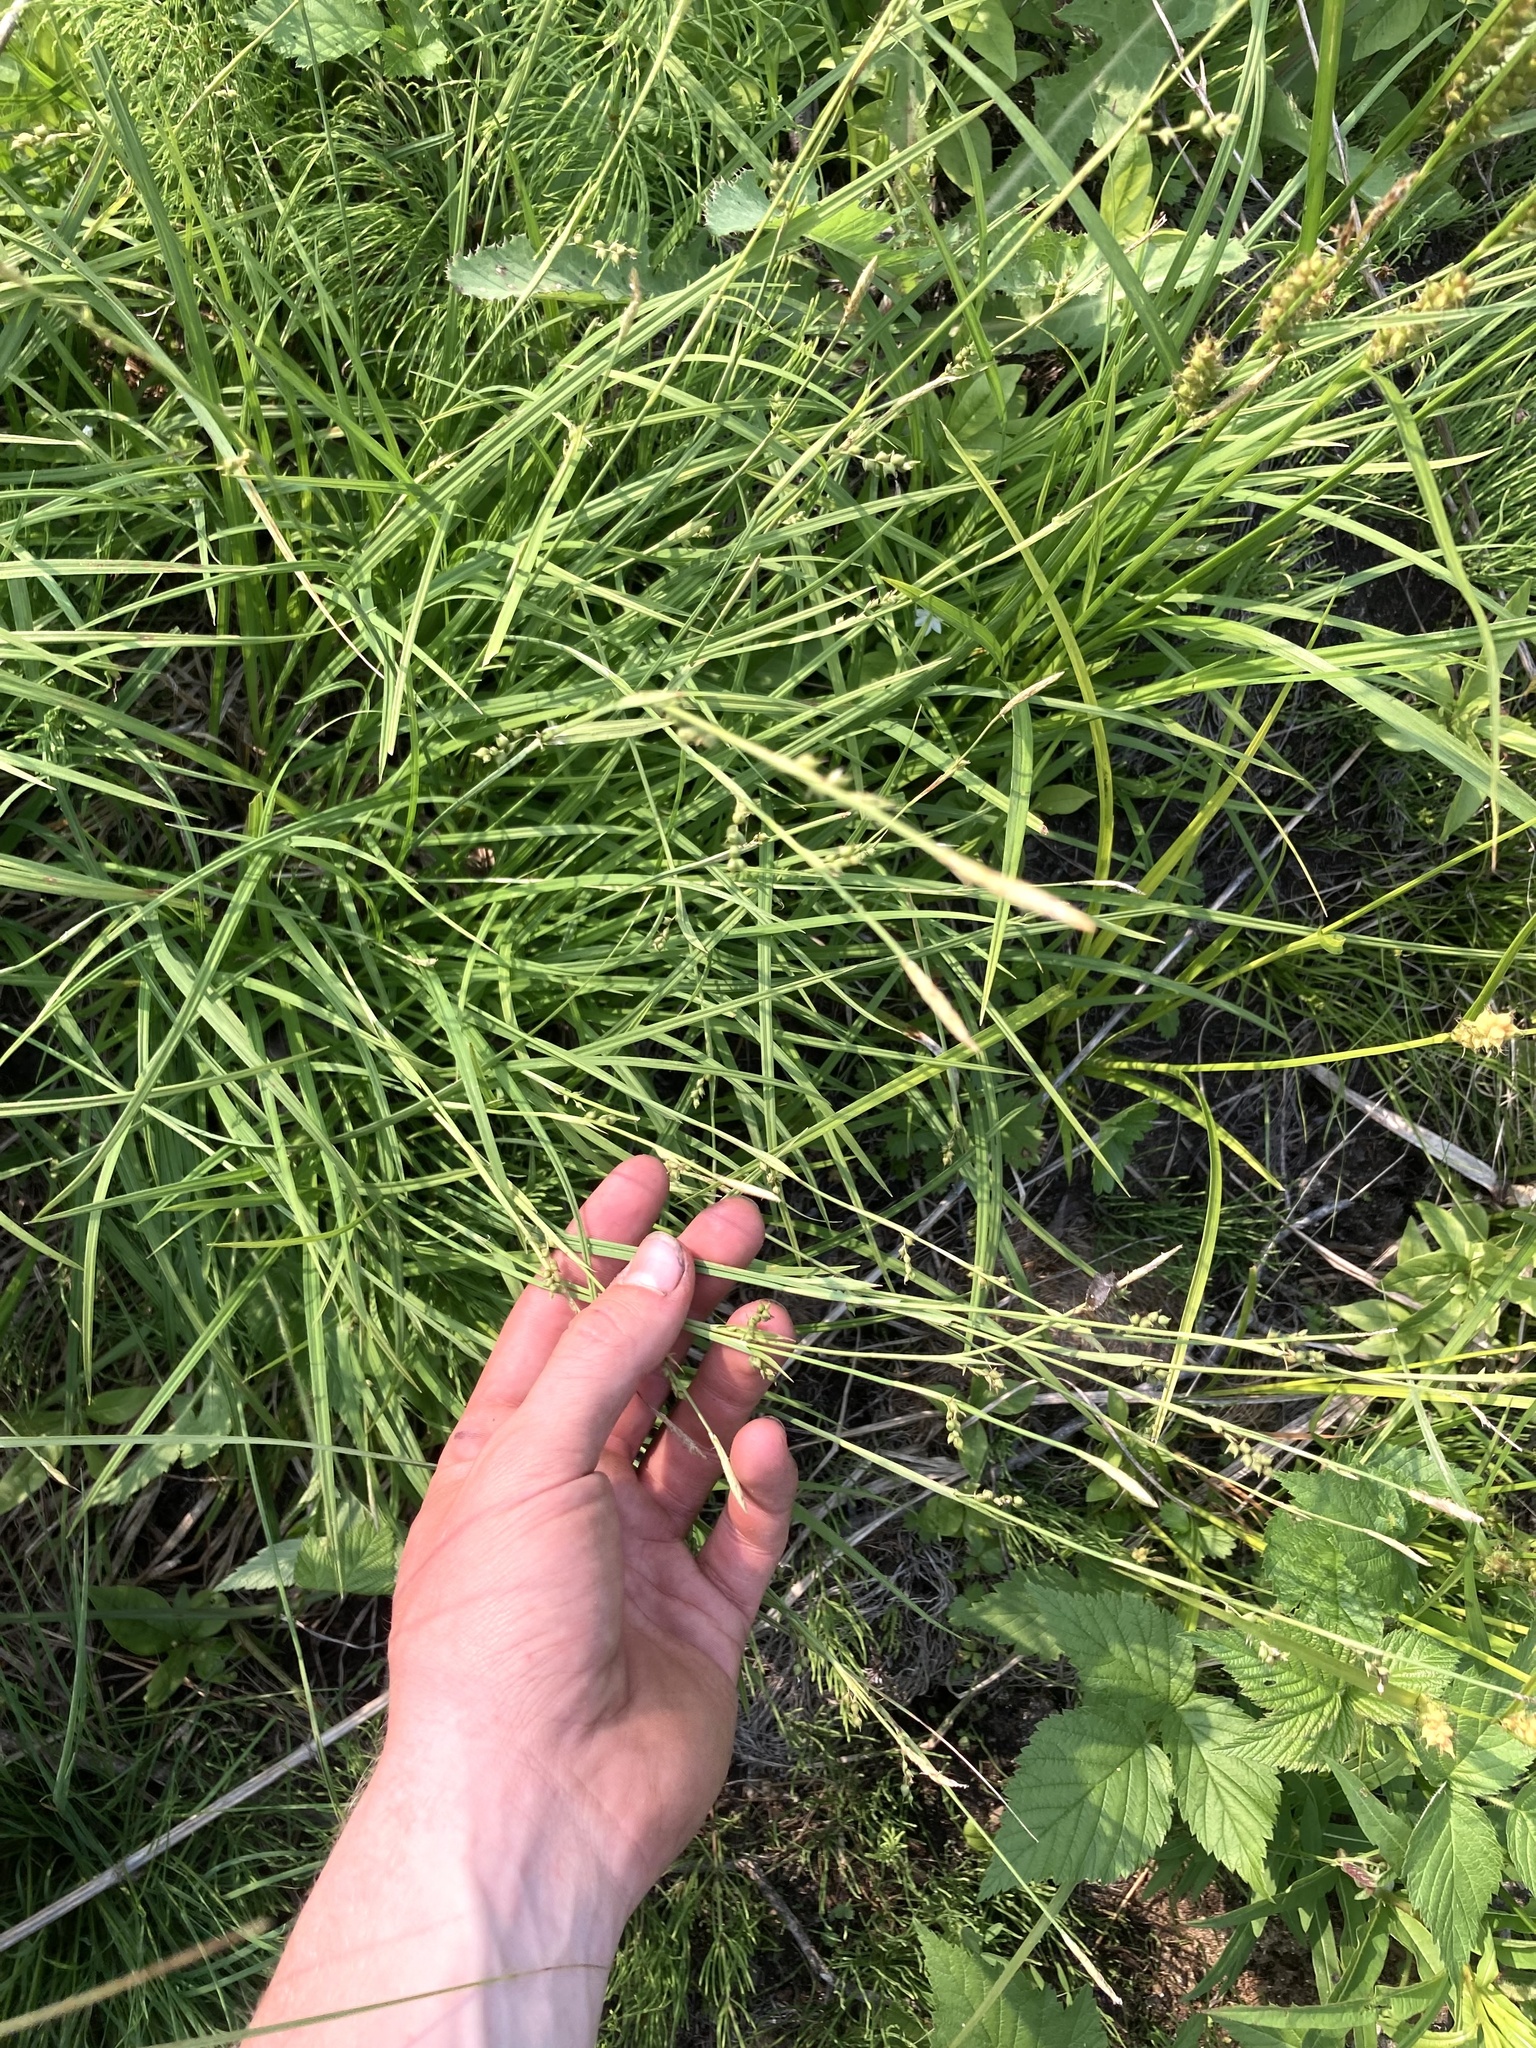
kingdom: Plantae
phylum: Tracheophyta
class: Liliopsida
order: Poales
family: Cyperaceae
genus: Carex
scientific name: Carex vaginata
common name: Sheathed sedge
